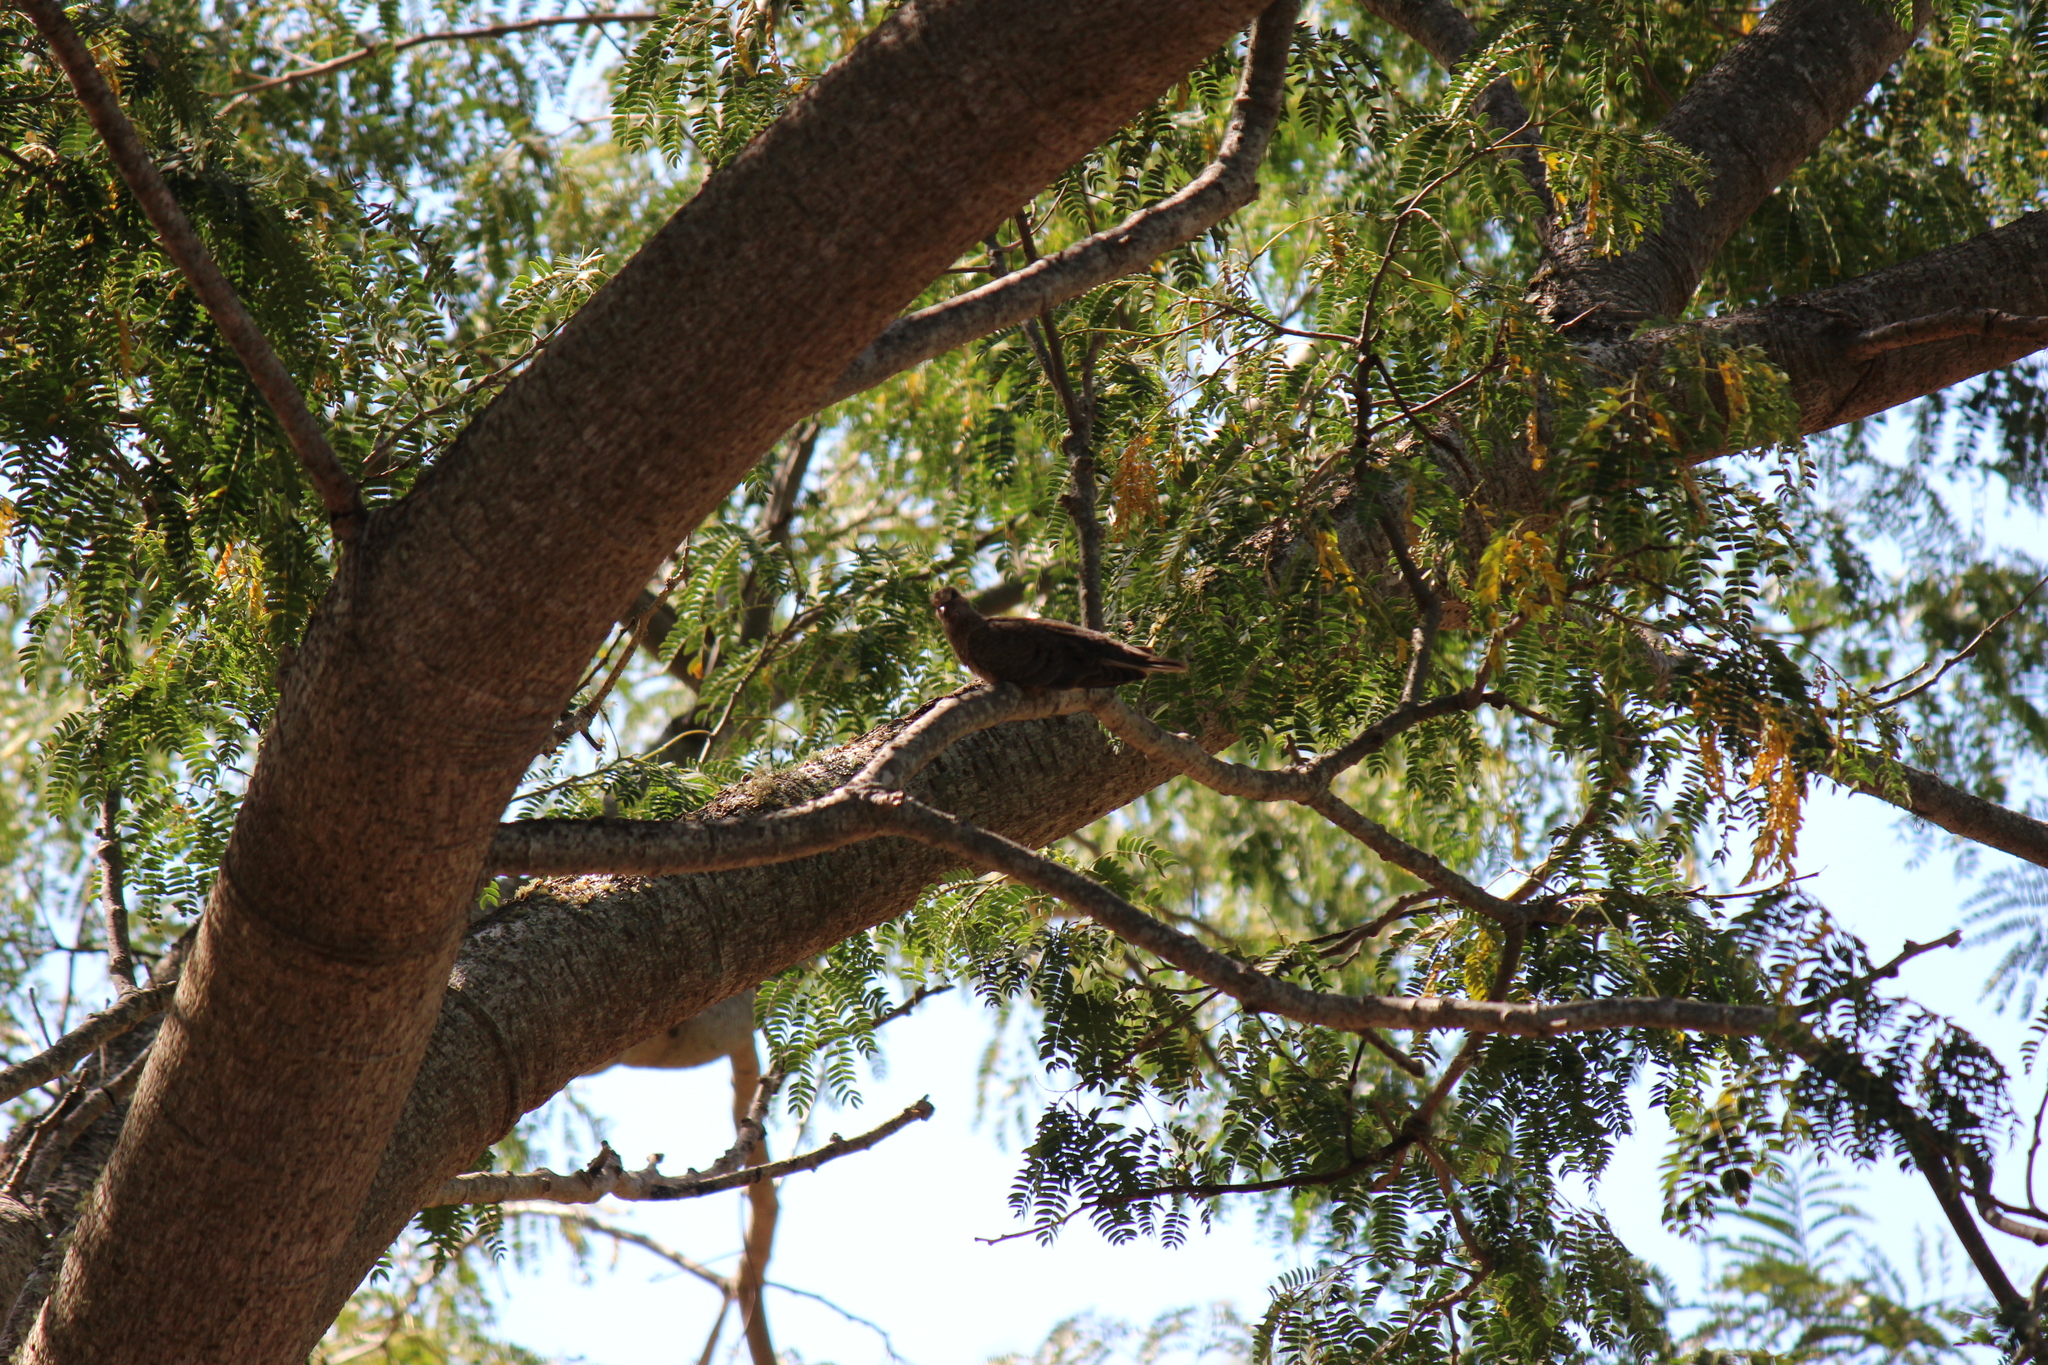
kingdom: Animalia
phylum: Chordata
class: Aves
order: Columbiformes
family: Columbidae
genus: Zenaida
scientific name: Zenaida auriculata
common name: Eared dove
